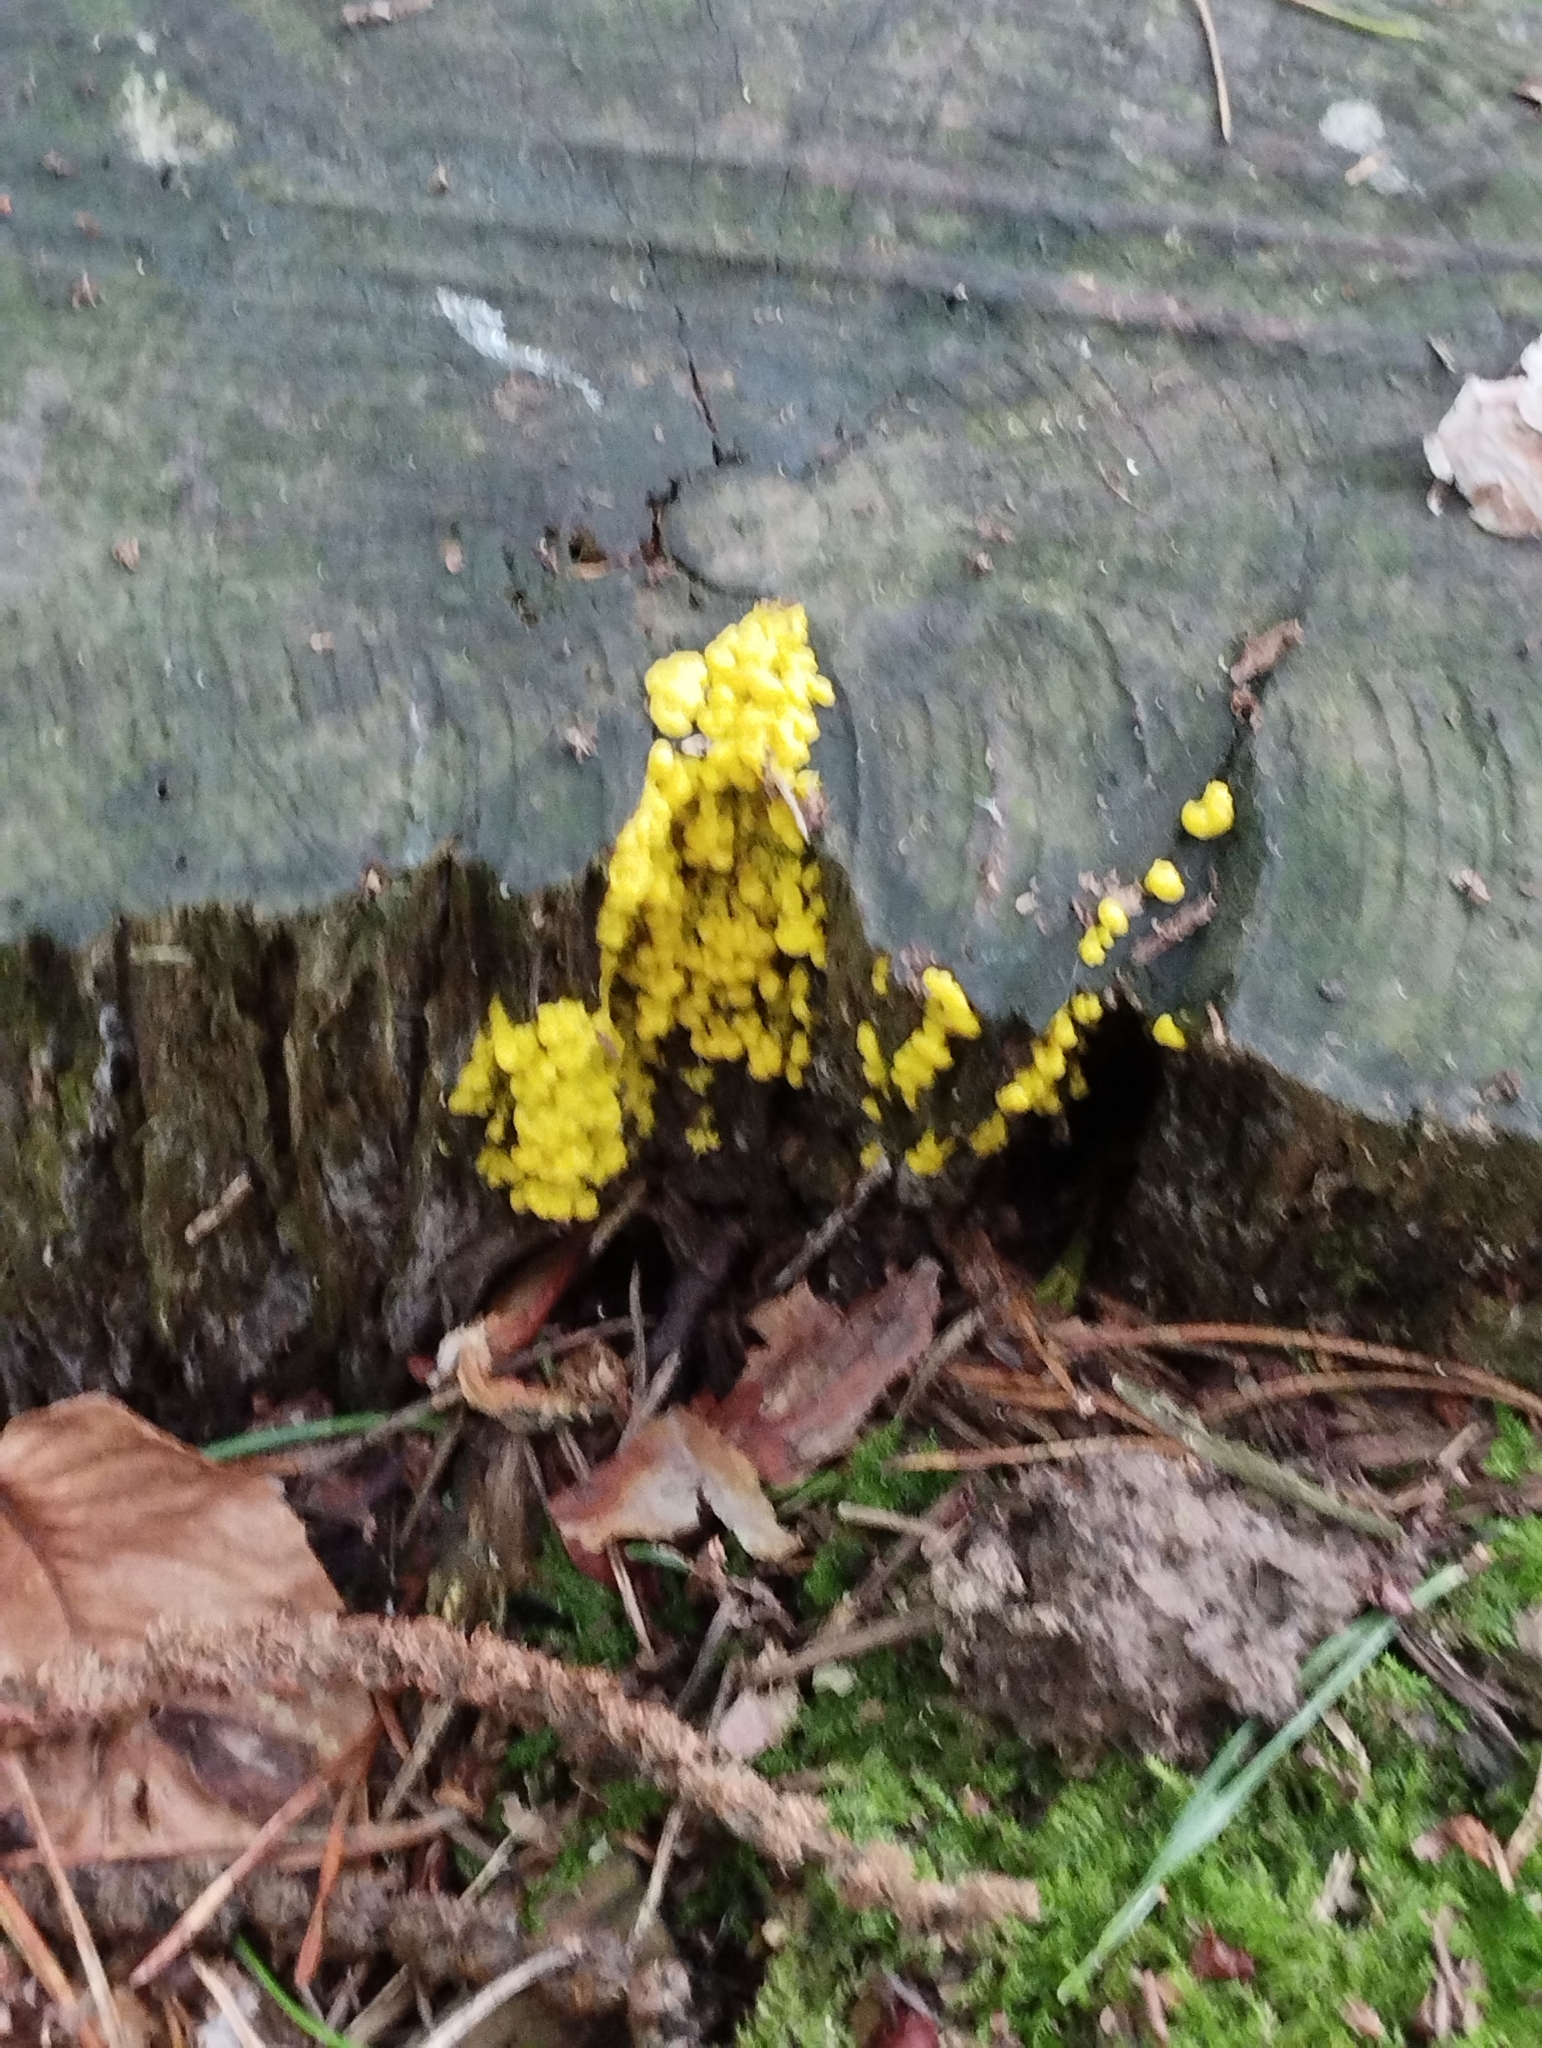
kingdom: Protozoa
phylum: Mycetozoa
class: Myxomycetes
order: Physarales
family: Physaraceae
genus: Fuligo
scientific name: Fuligo septica
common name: Dog vomit slime mold
